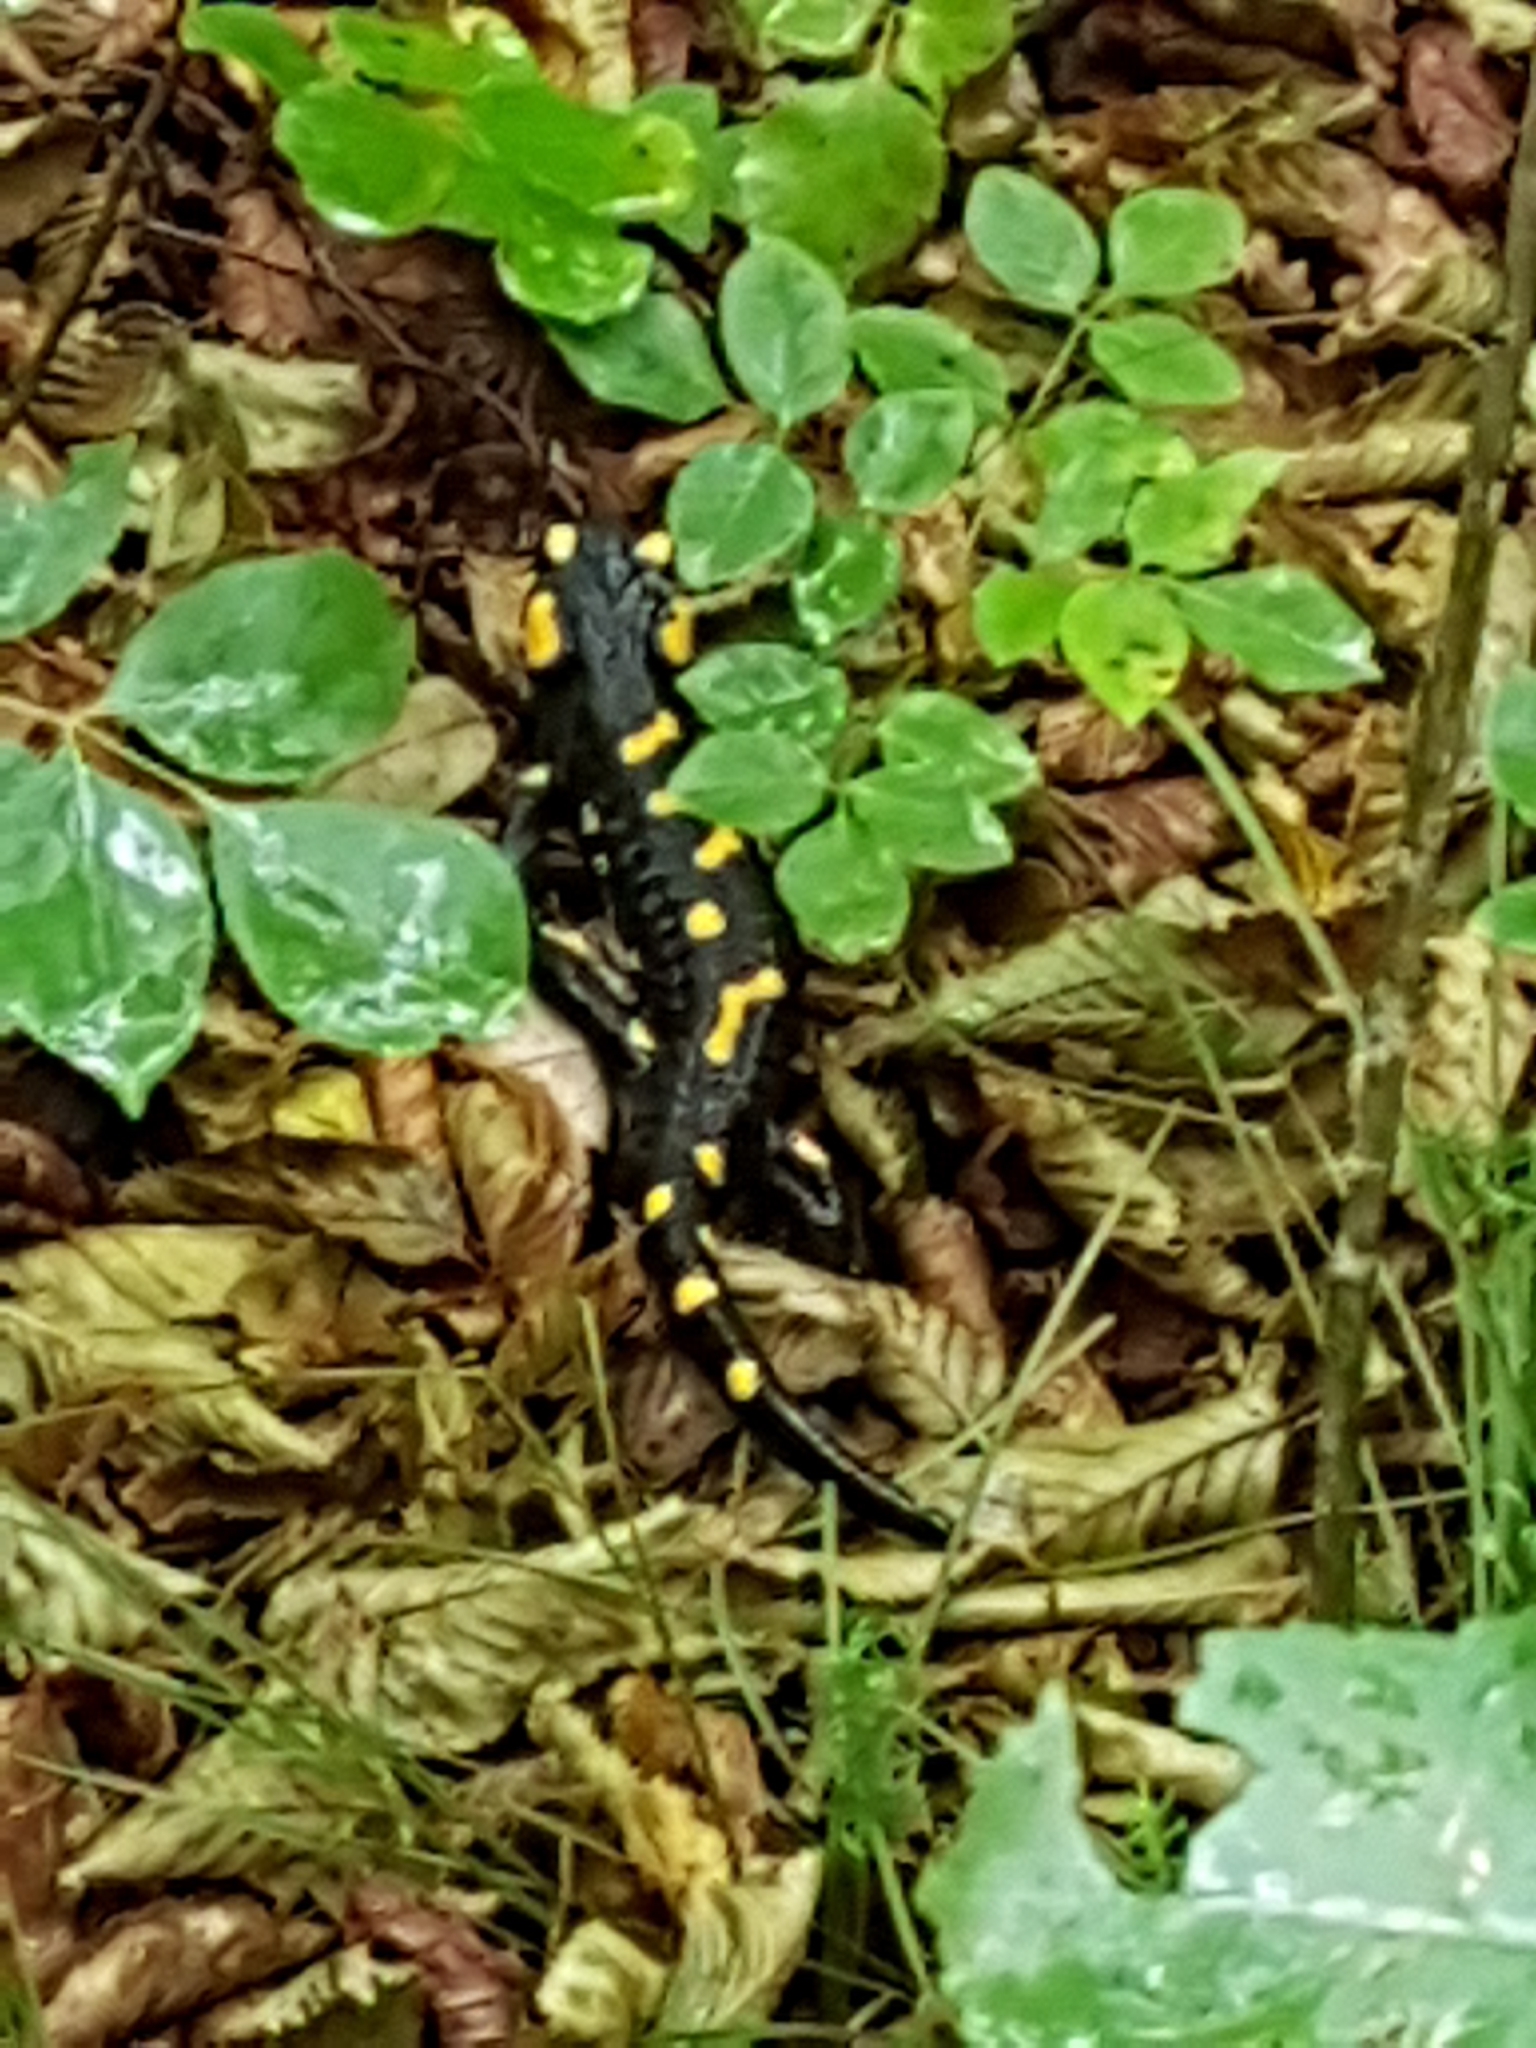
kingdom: Animalia
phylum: Chordata
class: Amphibia
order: Caudata
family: Salamandridae
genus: Salamandra
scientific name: Salamandra salamandra
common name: Fire salamander
